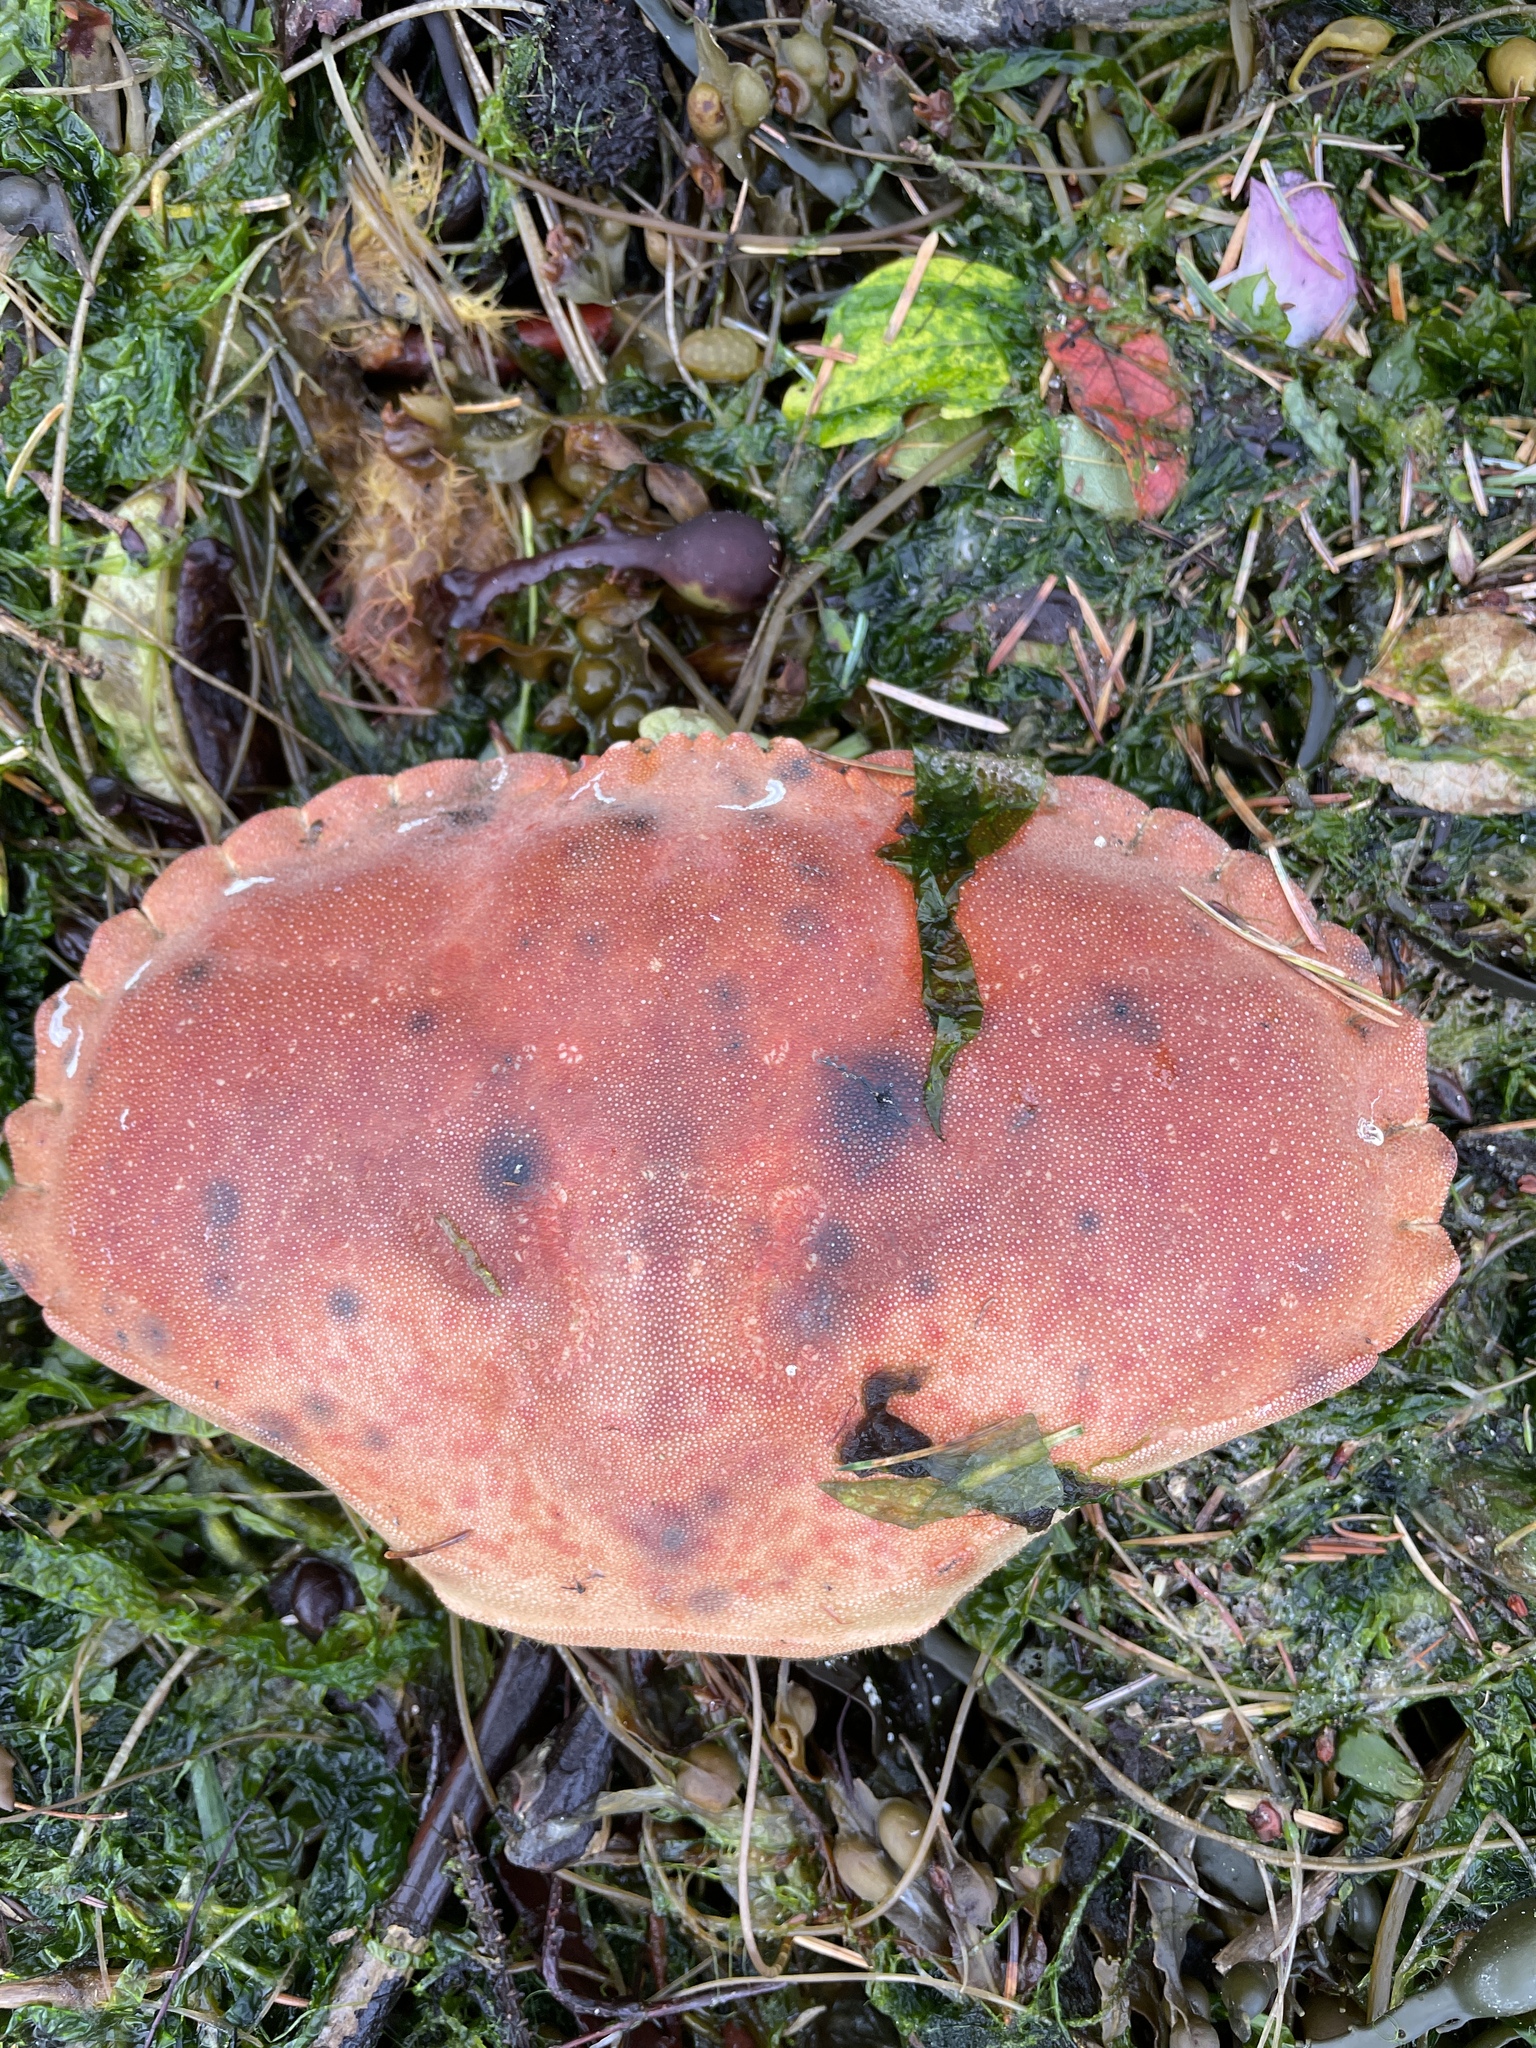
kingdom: Animalia
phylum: Arthropoda
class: Malacostraca
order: Decapoda
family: Cancridae
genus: Cancer
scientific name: Cancer pagurus
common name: Edible crab
